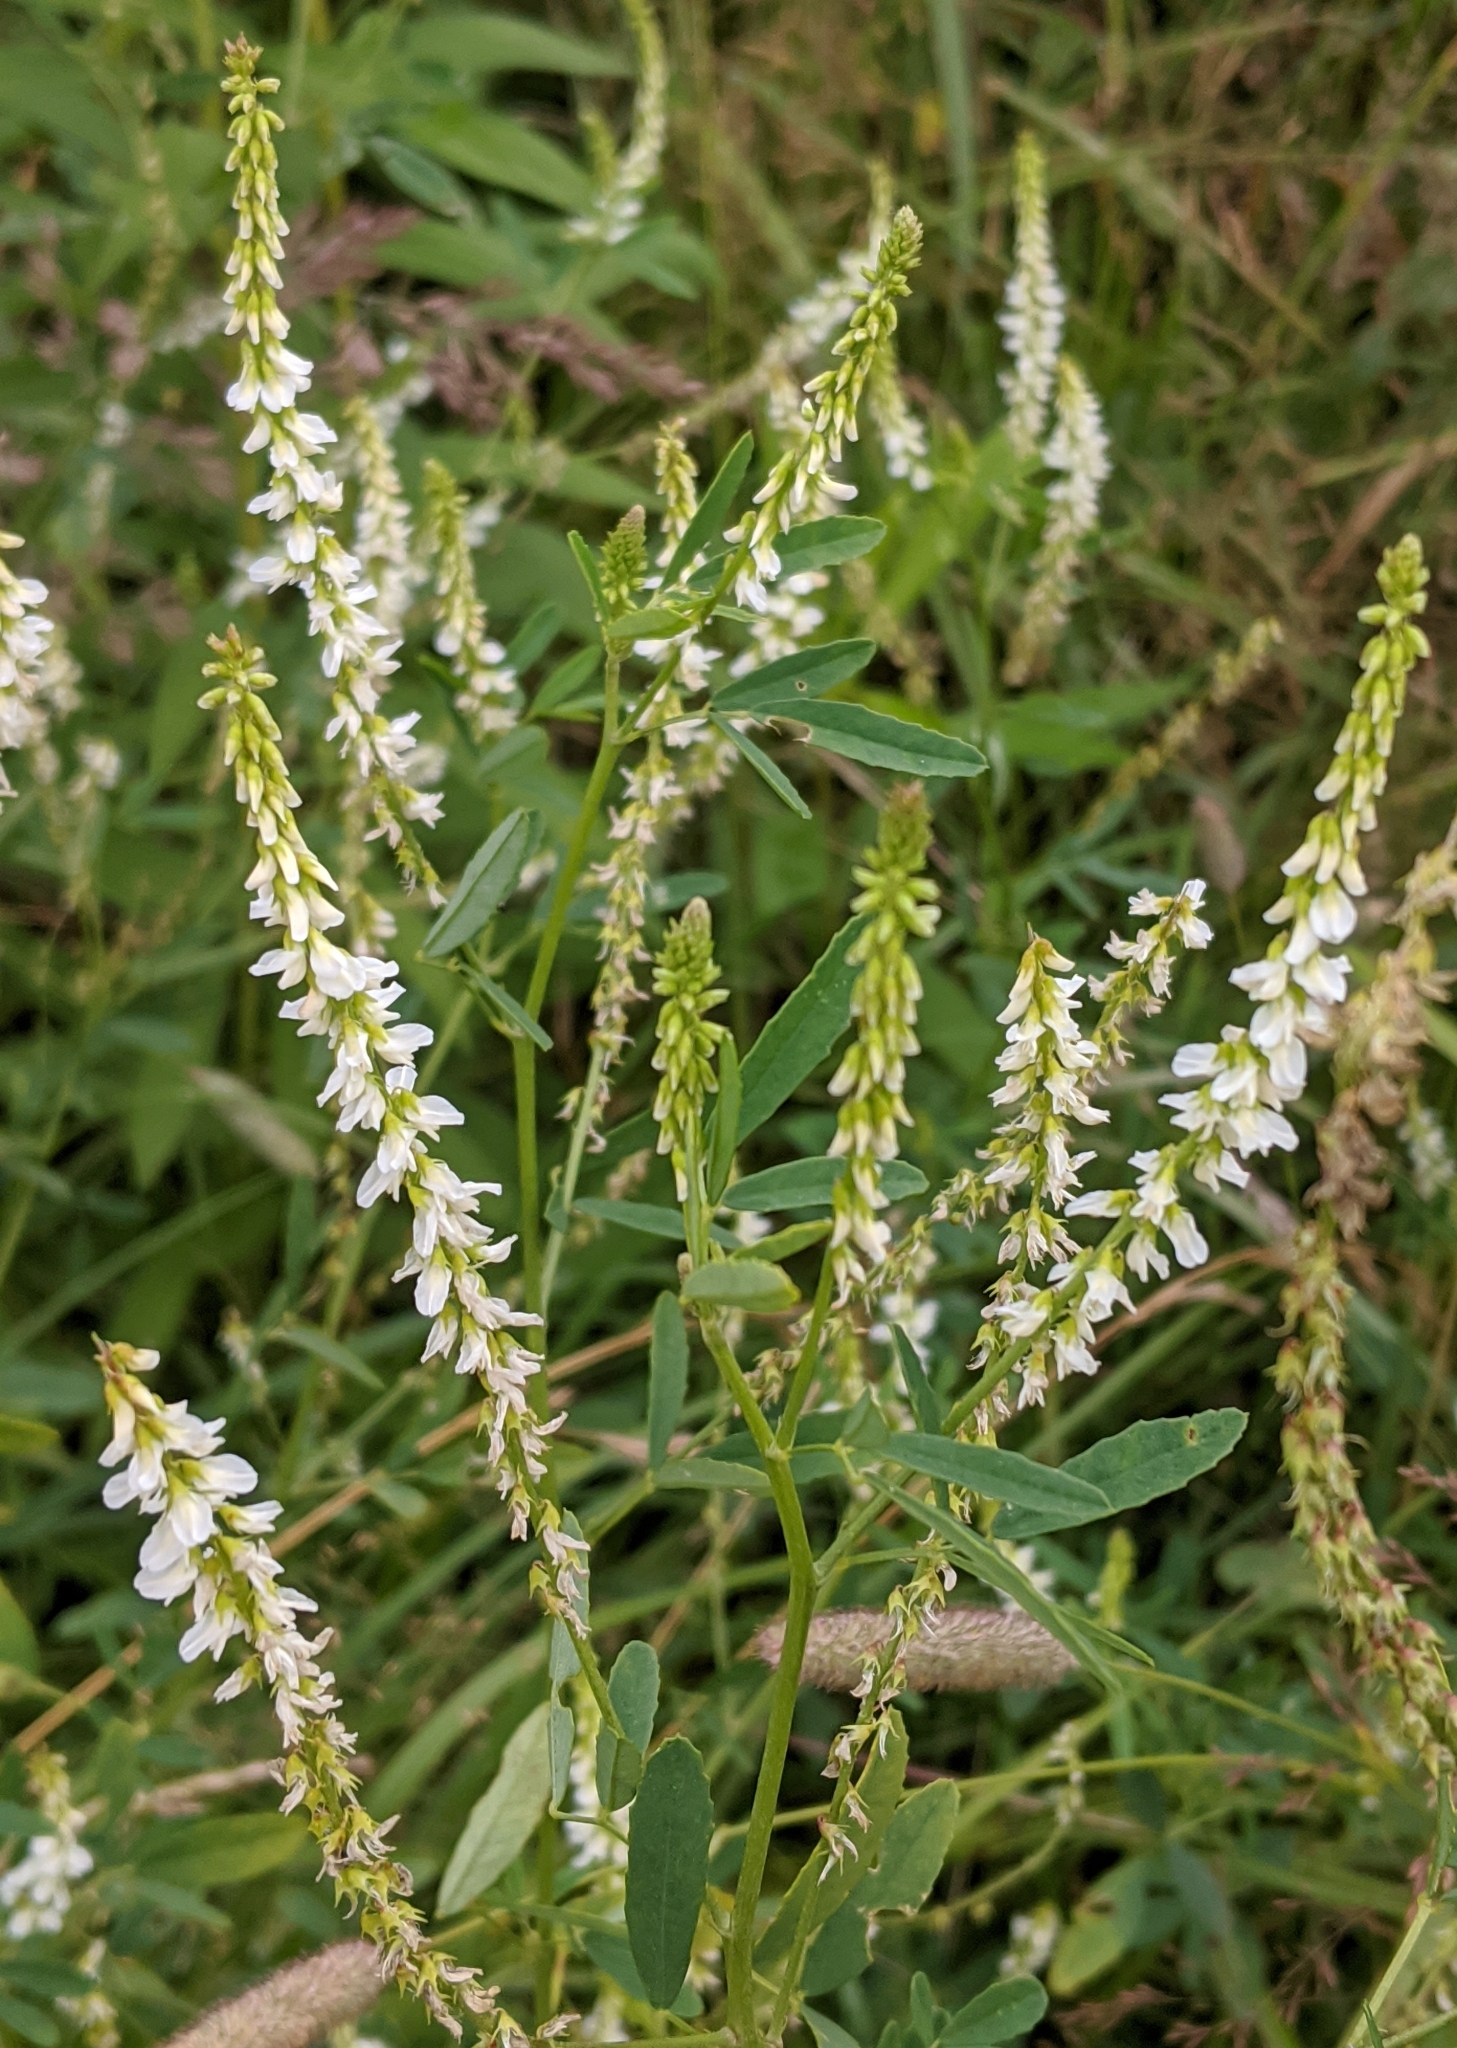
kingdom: Plantae
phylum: Tracheophyta
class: Magnoliopsida
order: Fabales
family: Fabaceae
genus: Melilotus
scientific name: Melilotus albus
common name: White melilot
